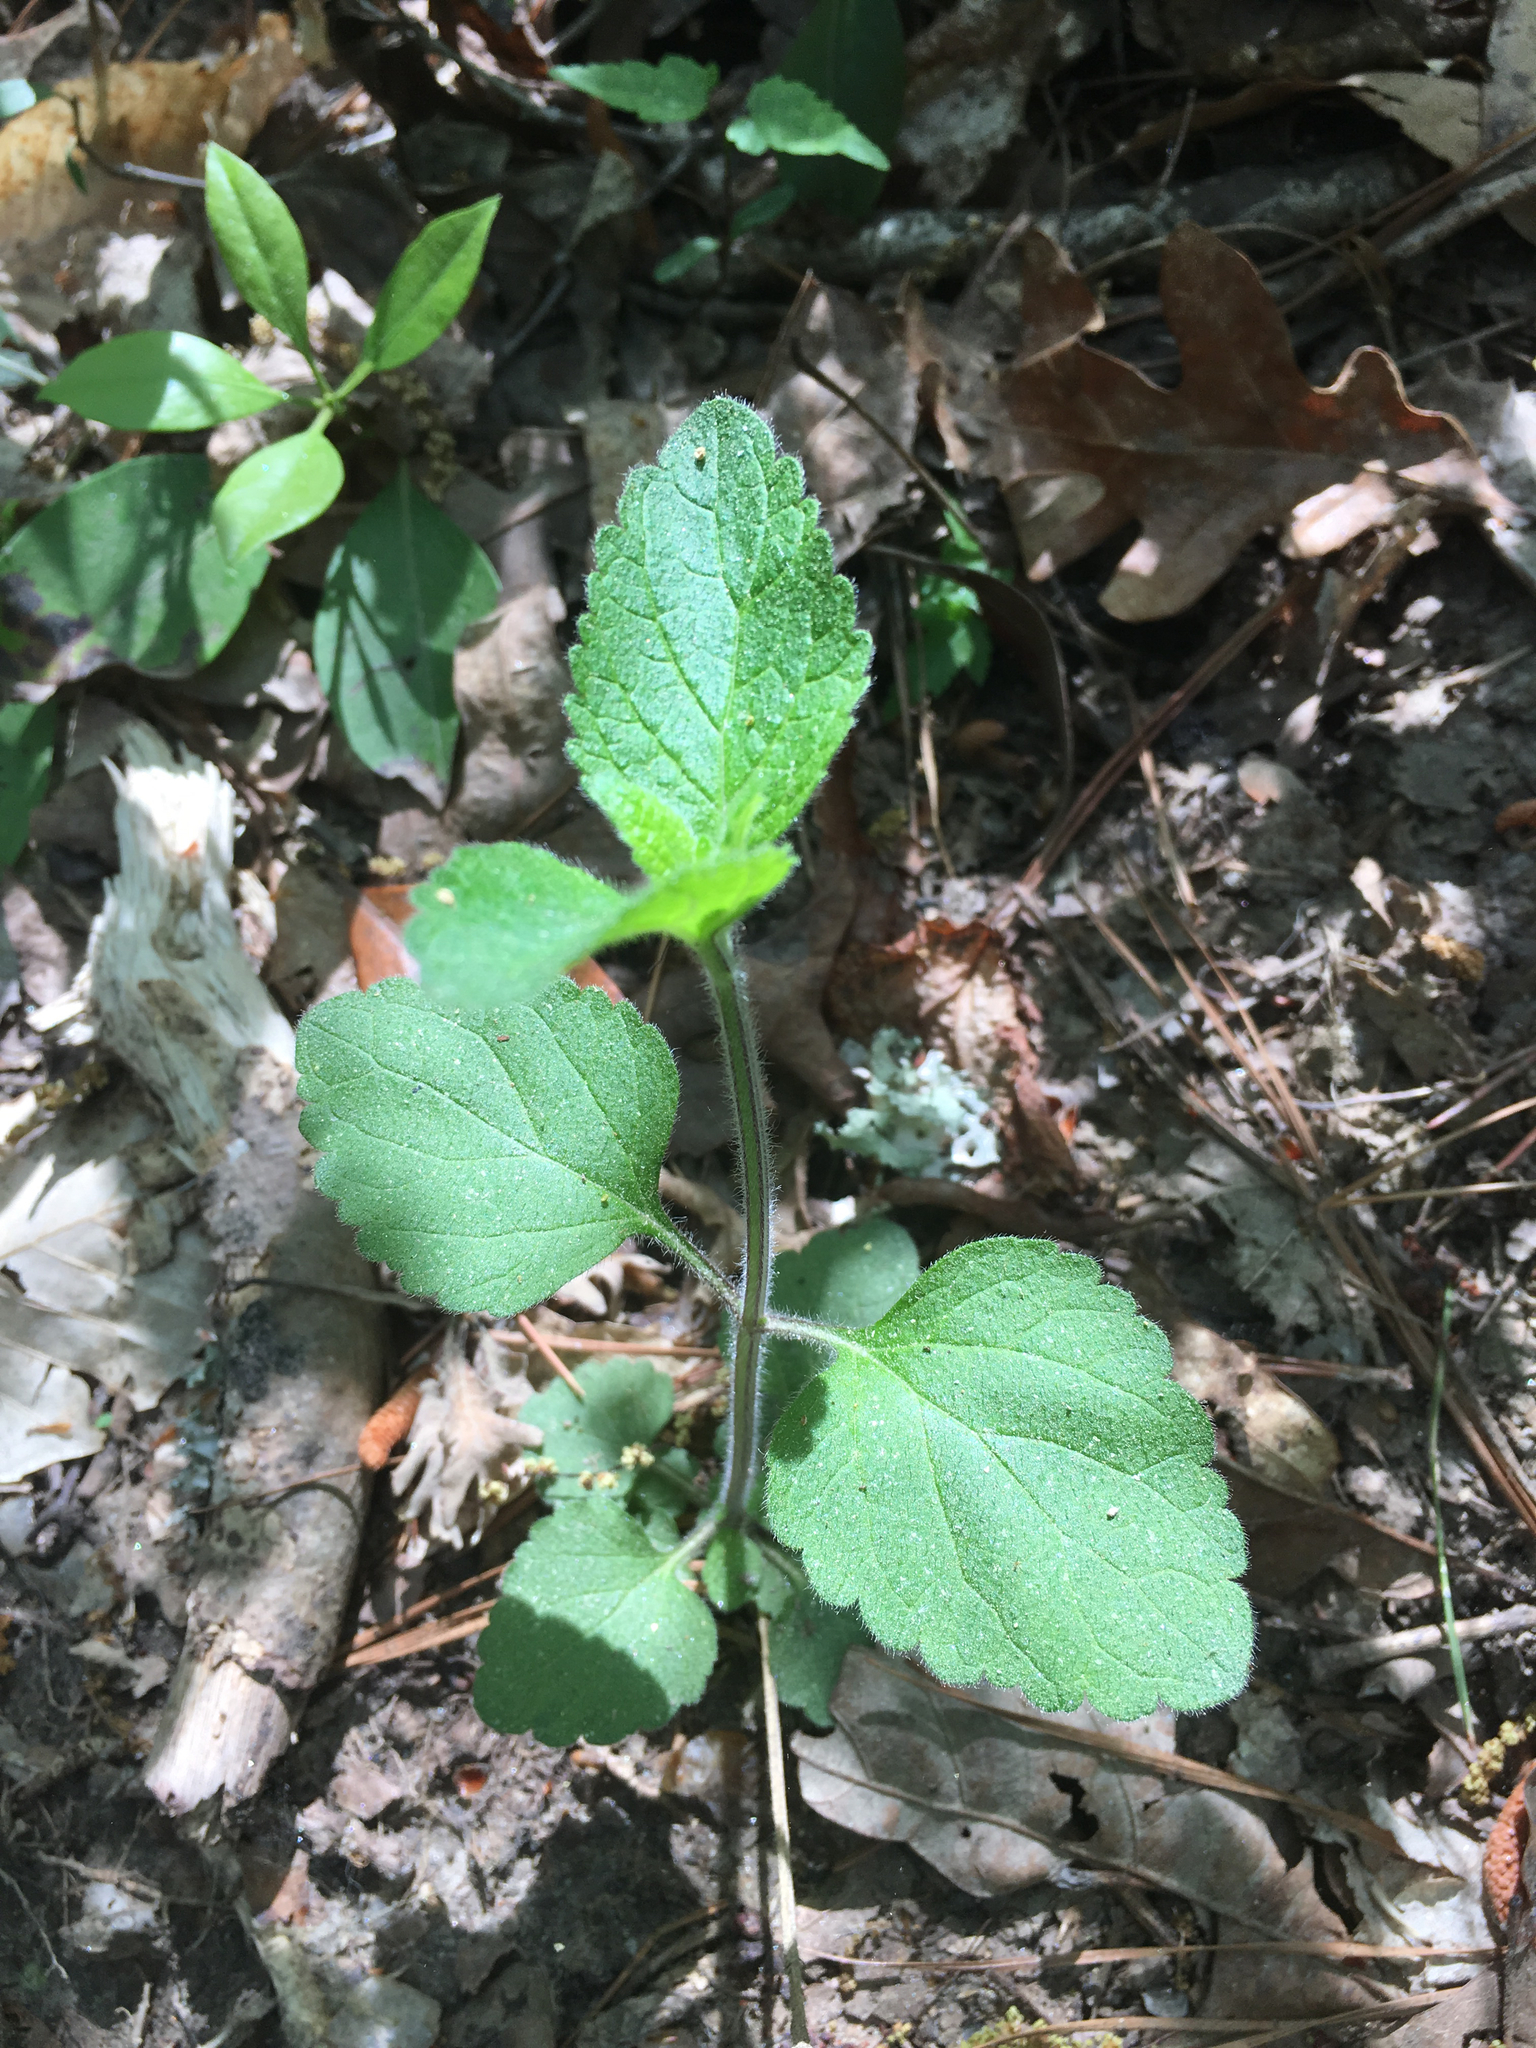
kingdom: Plantae
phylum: Tracheophyta
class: Magnoliopsida
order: Lamiales
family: Lamiaceae
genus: Scutellaria
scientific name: Scutellaria elliptica
